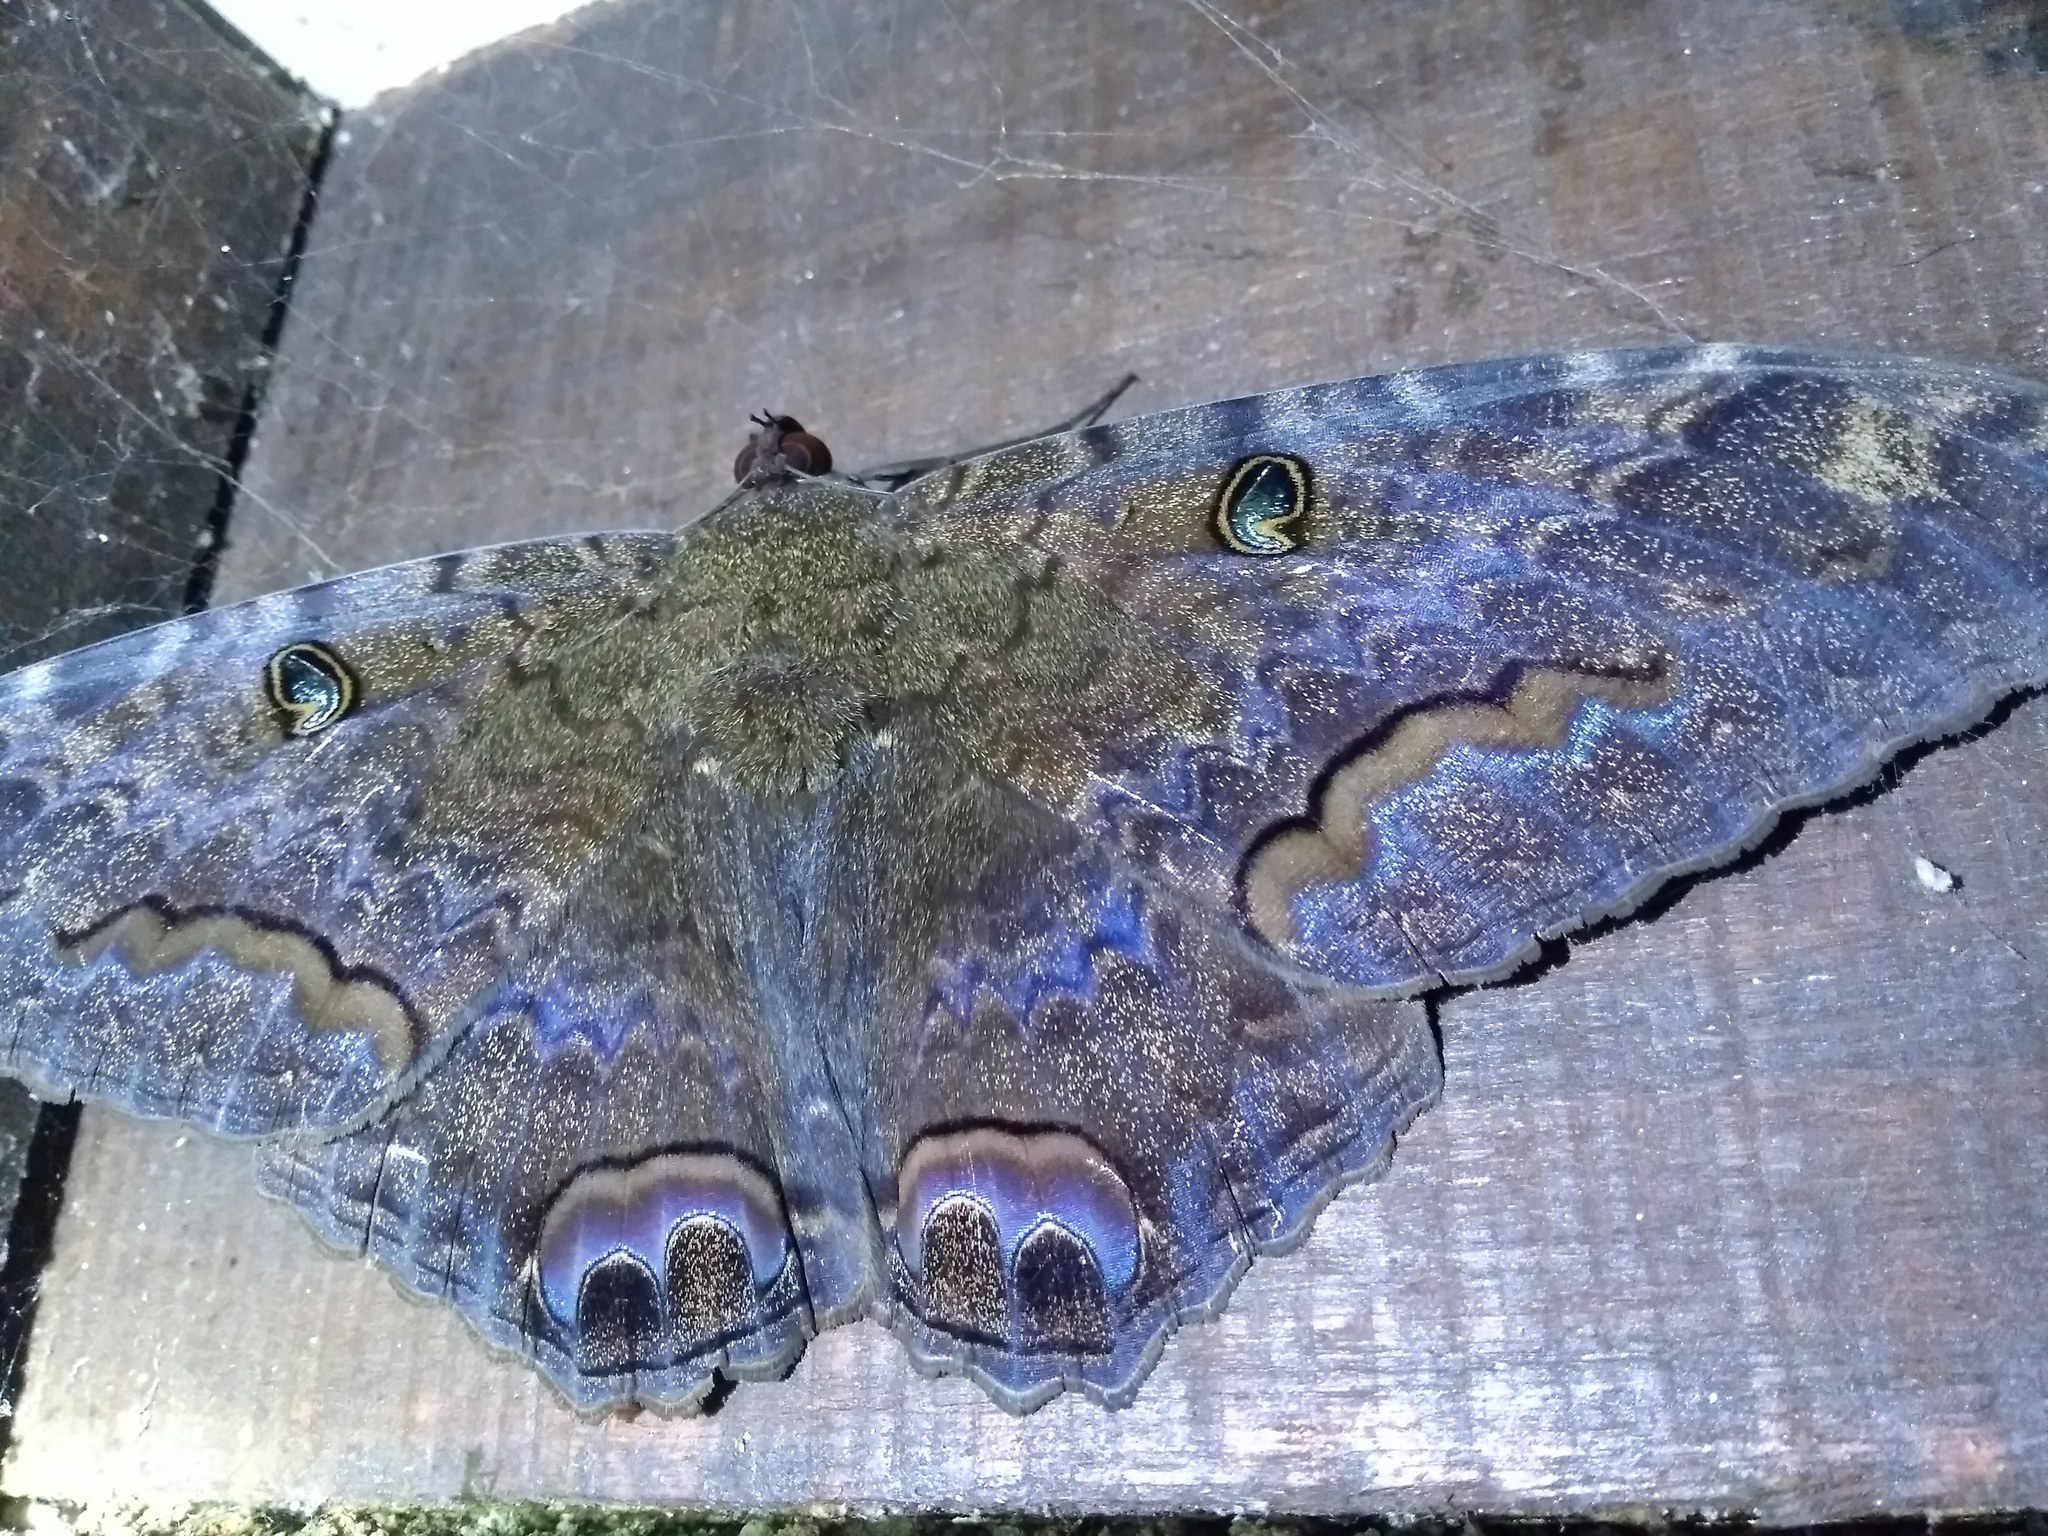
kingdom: Animalia
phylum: Arthropoda
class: Insecta
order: Lepidoptera
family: Erebidae
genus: Ascalapha
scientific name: Ascalapha odorata
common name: Black witch
